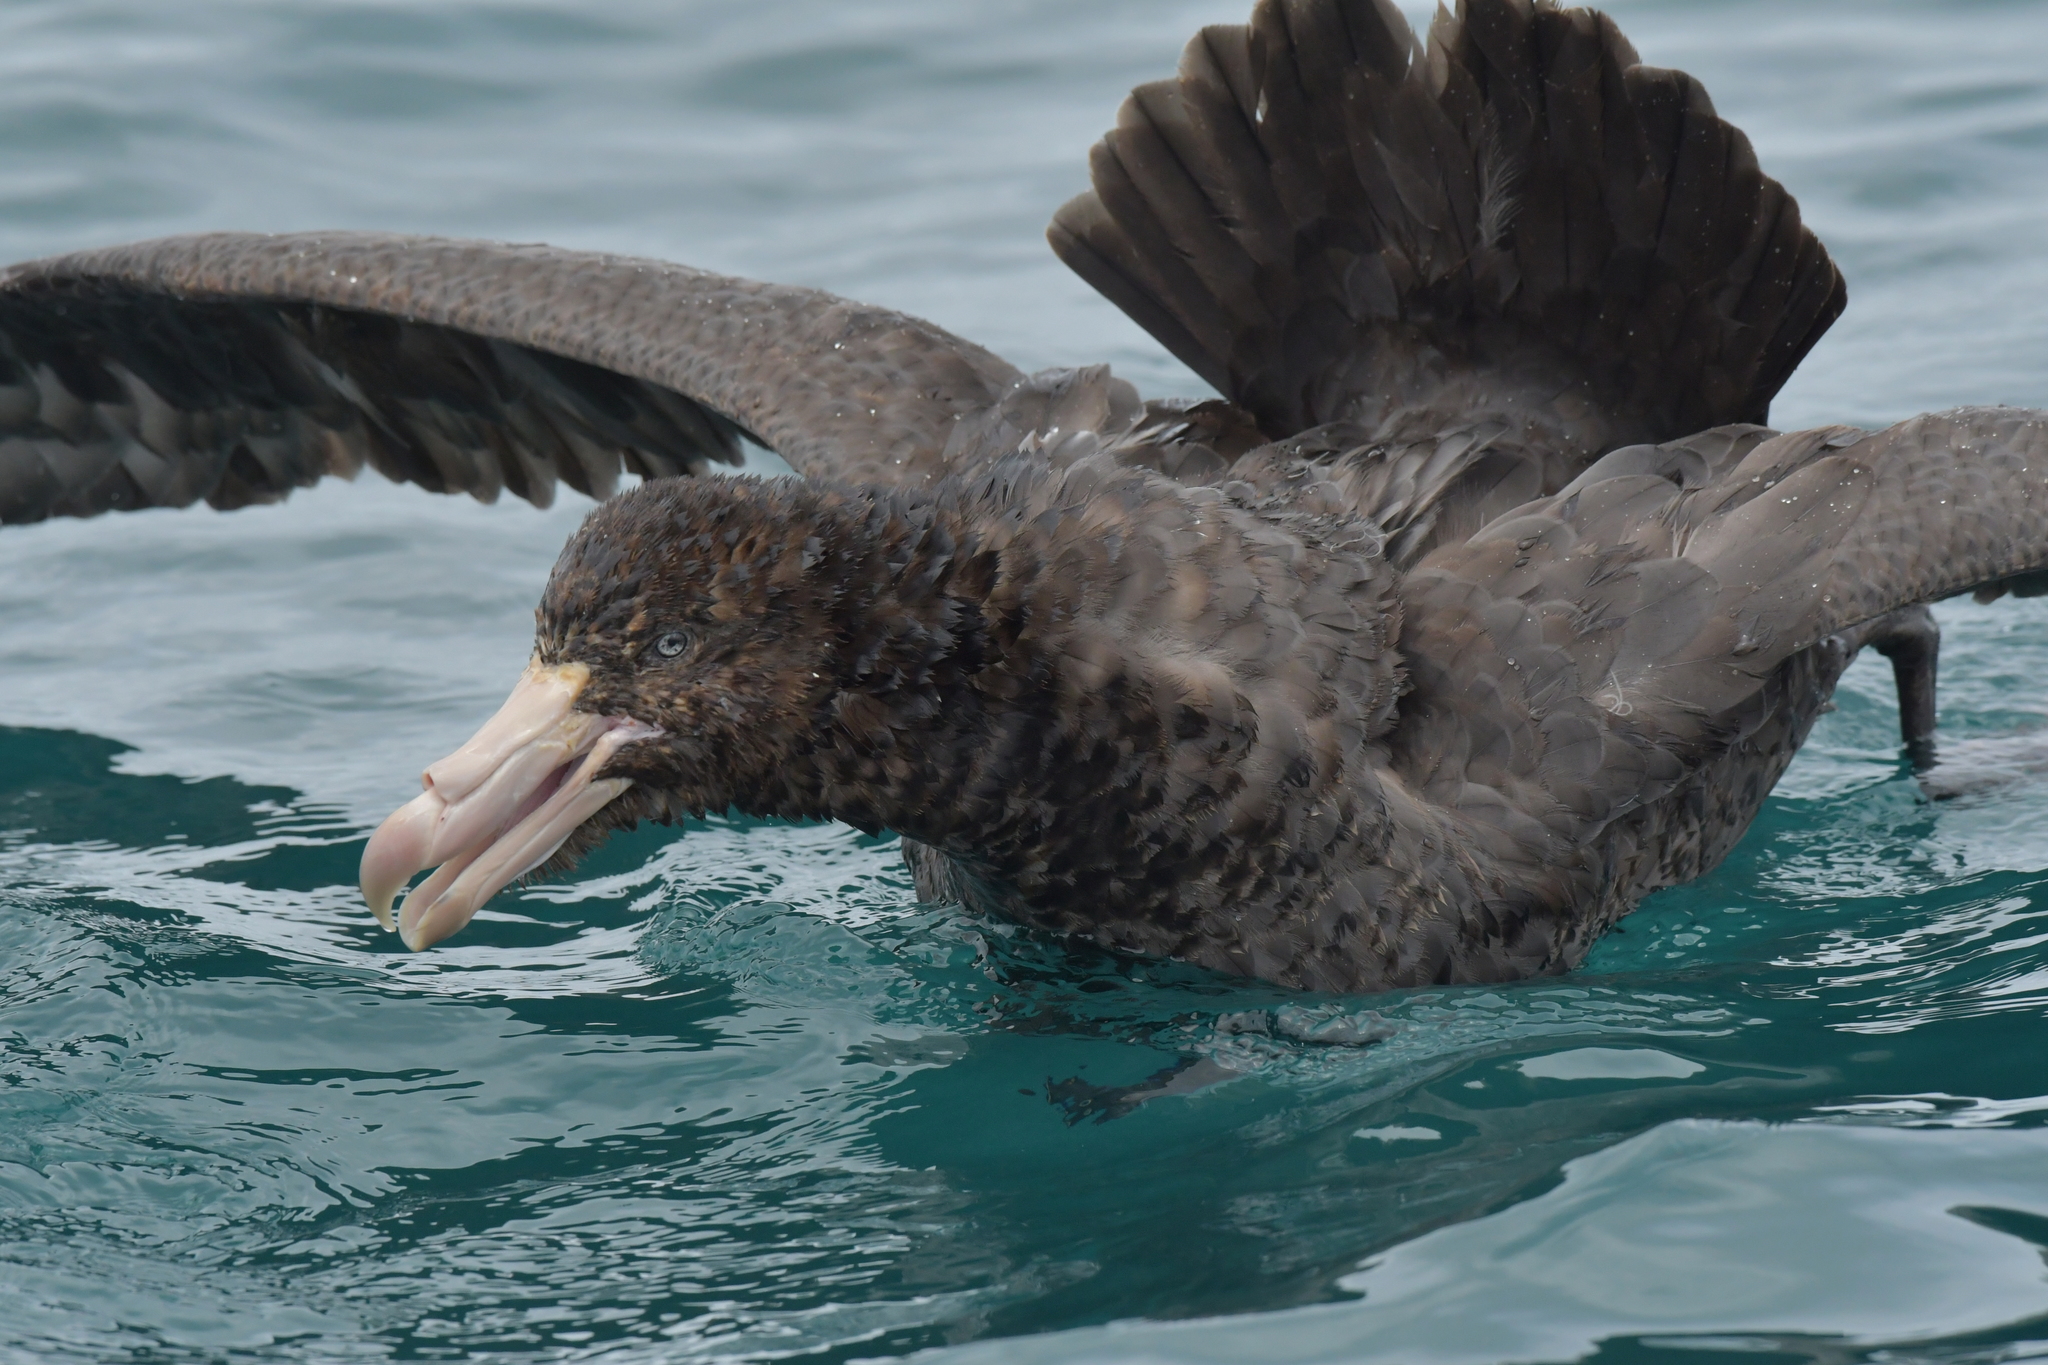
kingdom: Animalia
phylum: Chordata
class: Aves
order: Procellariiformes
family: Procellariidae
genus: Macronectes
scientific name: Macronectes halli
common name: Northern giant petrel
